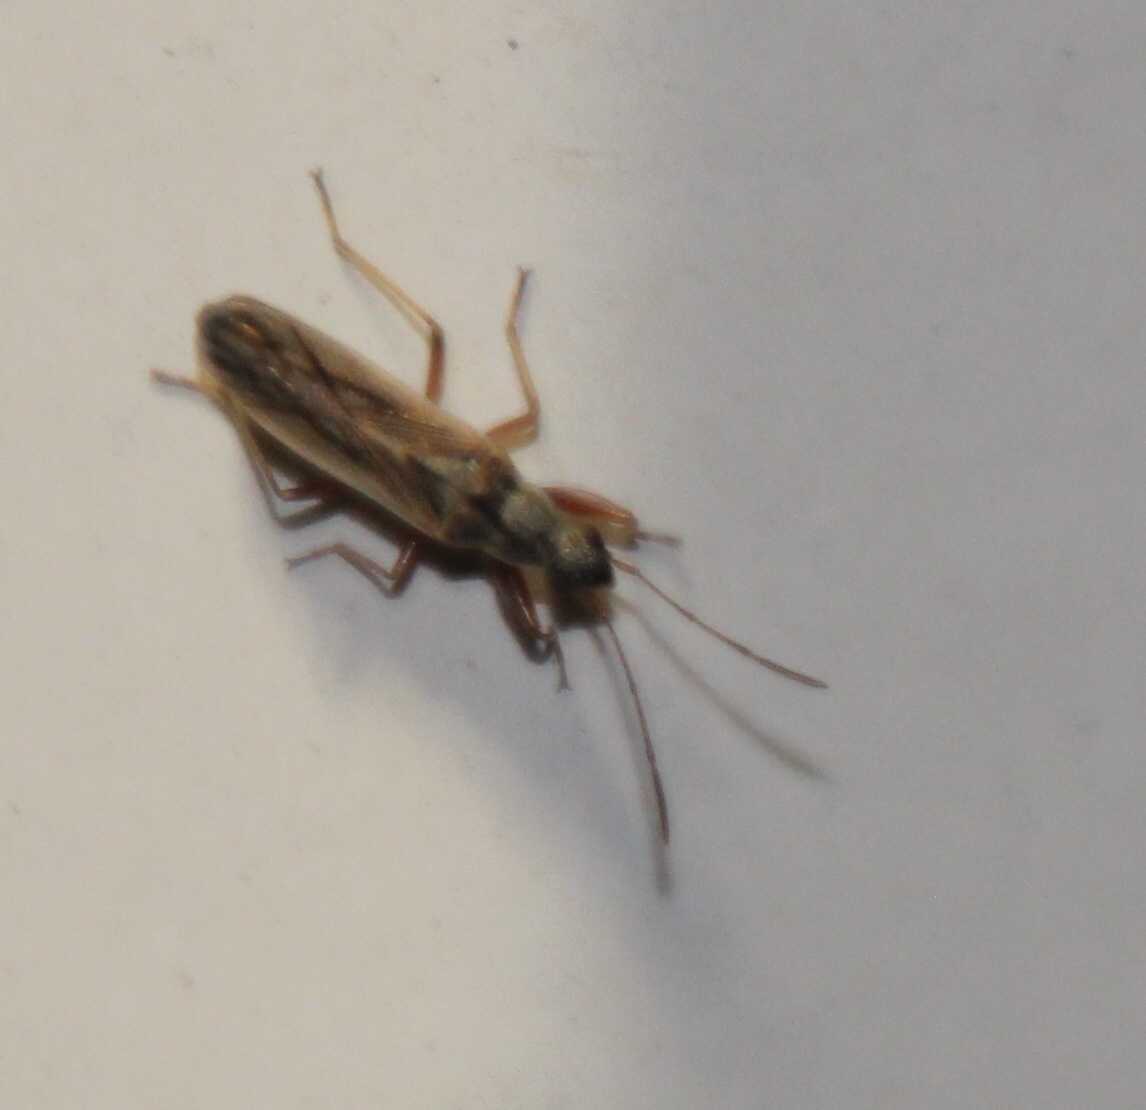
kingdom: Animalia
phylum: Arthropoda
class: Insecta
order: Hemiptera
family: Rhyparochromidae
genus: Paromius
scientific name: Paromius longulus
